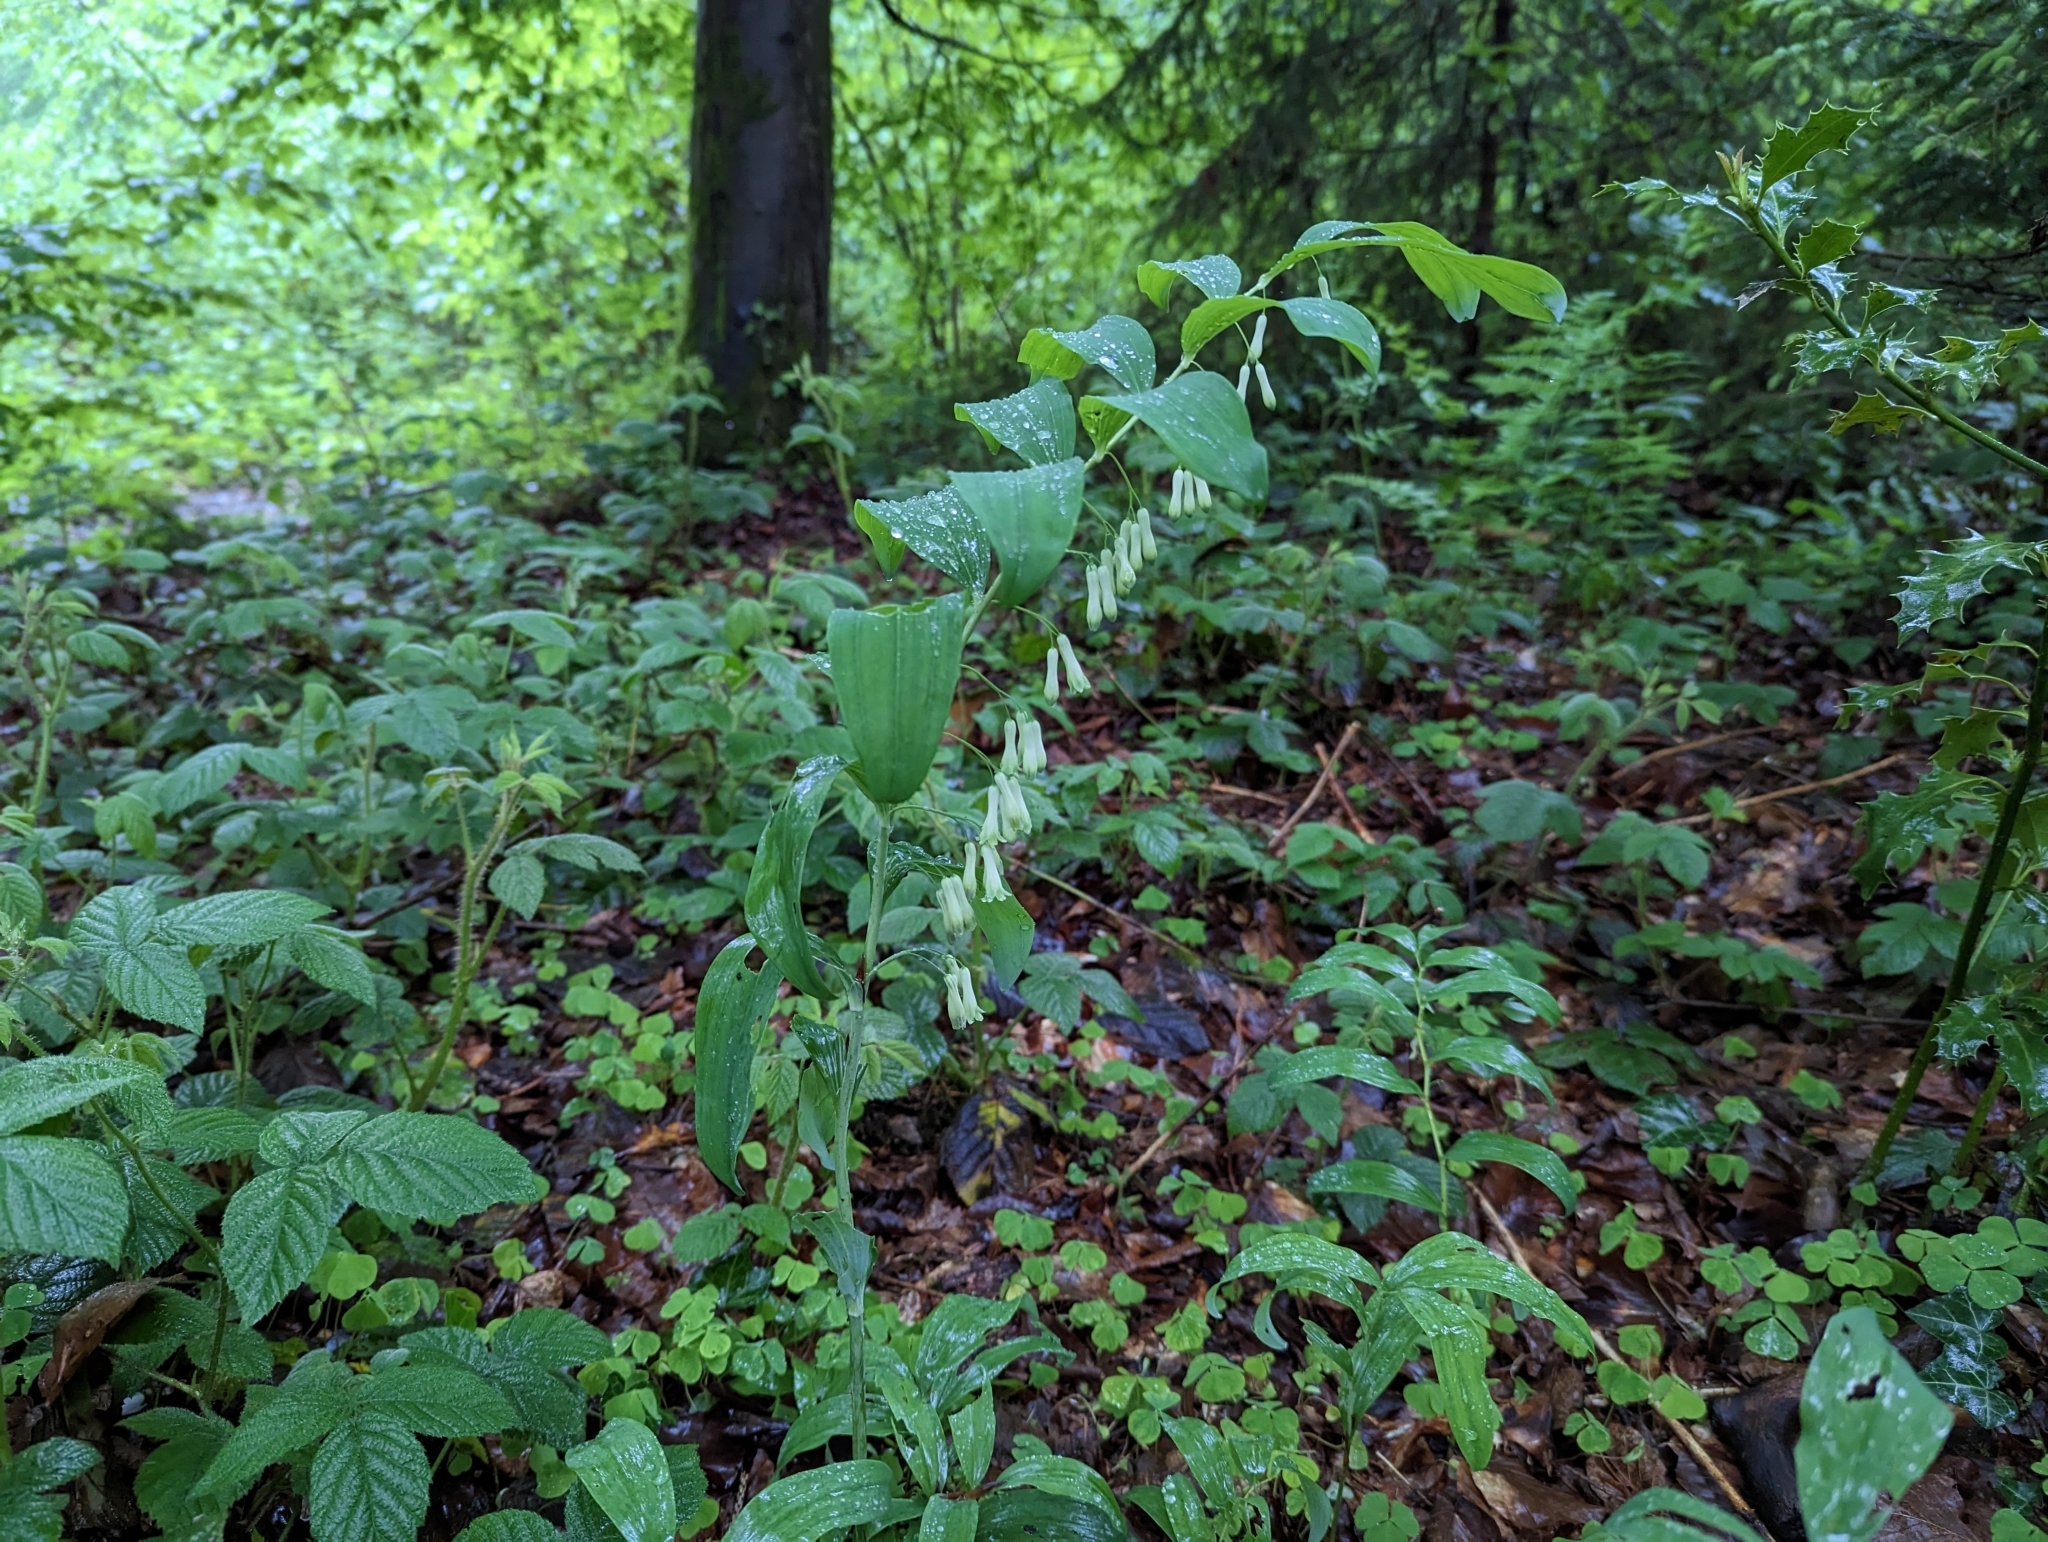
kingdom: Plantae
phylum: Tracheophyta
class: Liliopsida
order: Asparagales
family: Asparagaceae
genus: Polygonatum
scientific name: Polygonatum multiflorum
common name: Solomon's-seal
